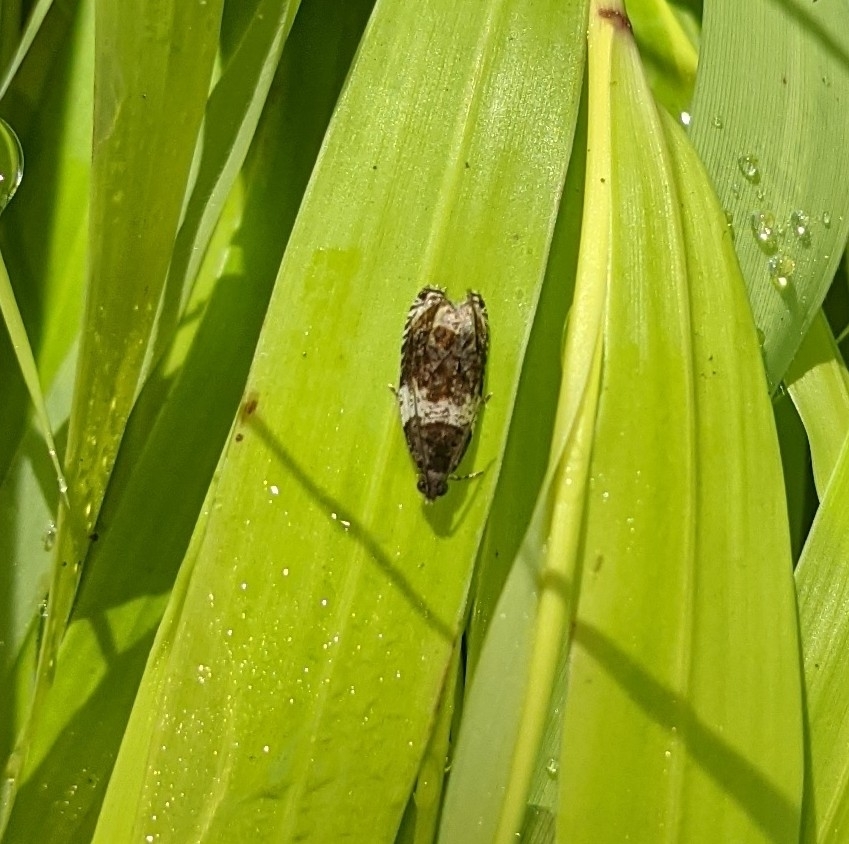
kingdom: Animalia
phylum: Arthropoda
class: Insecta
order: Lepidoptera
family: Tortricidae
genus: Olethreutes
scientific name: Olethreutes fasciatana
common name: Banded olethreutes moth
